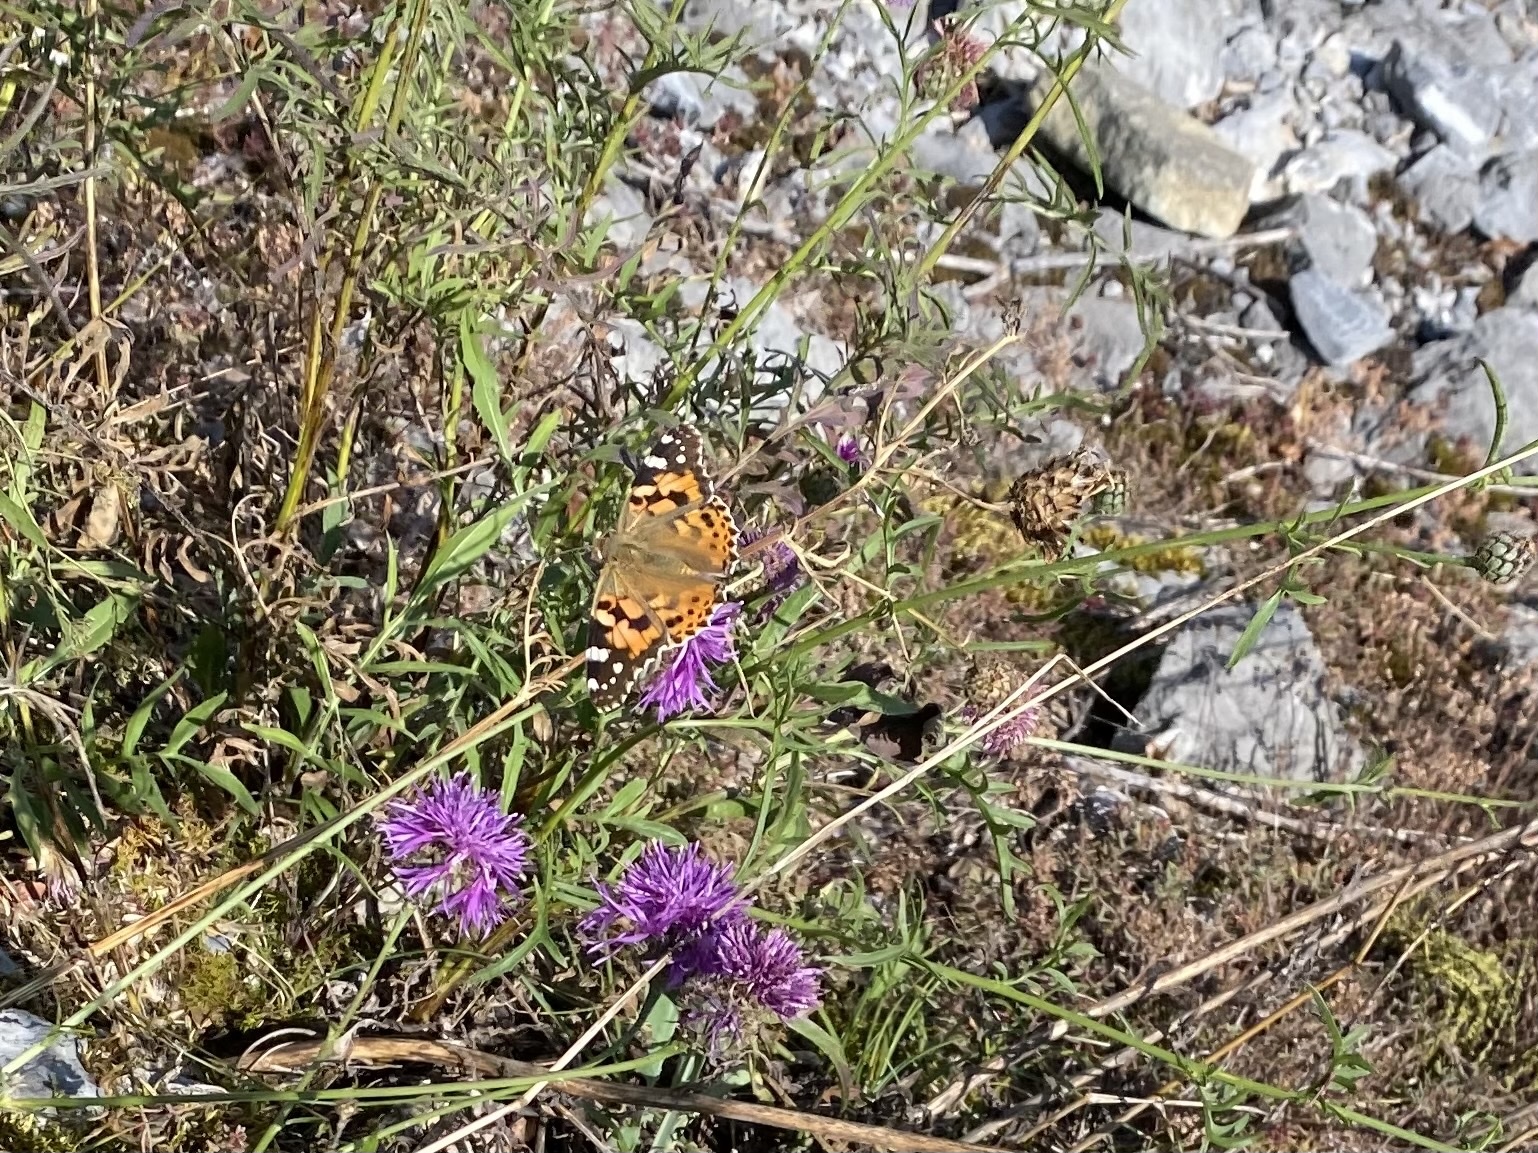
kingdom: Animalia
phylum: Arthropoda
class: Insecta
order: Lepidoptera
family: Nymphalidae
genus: Vanessa
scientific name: Vanessa cardui
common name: Painted lady
